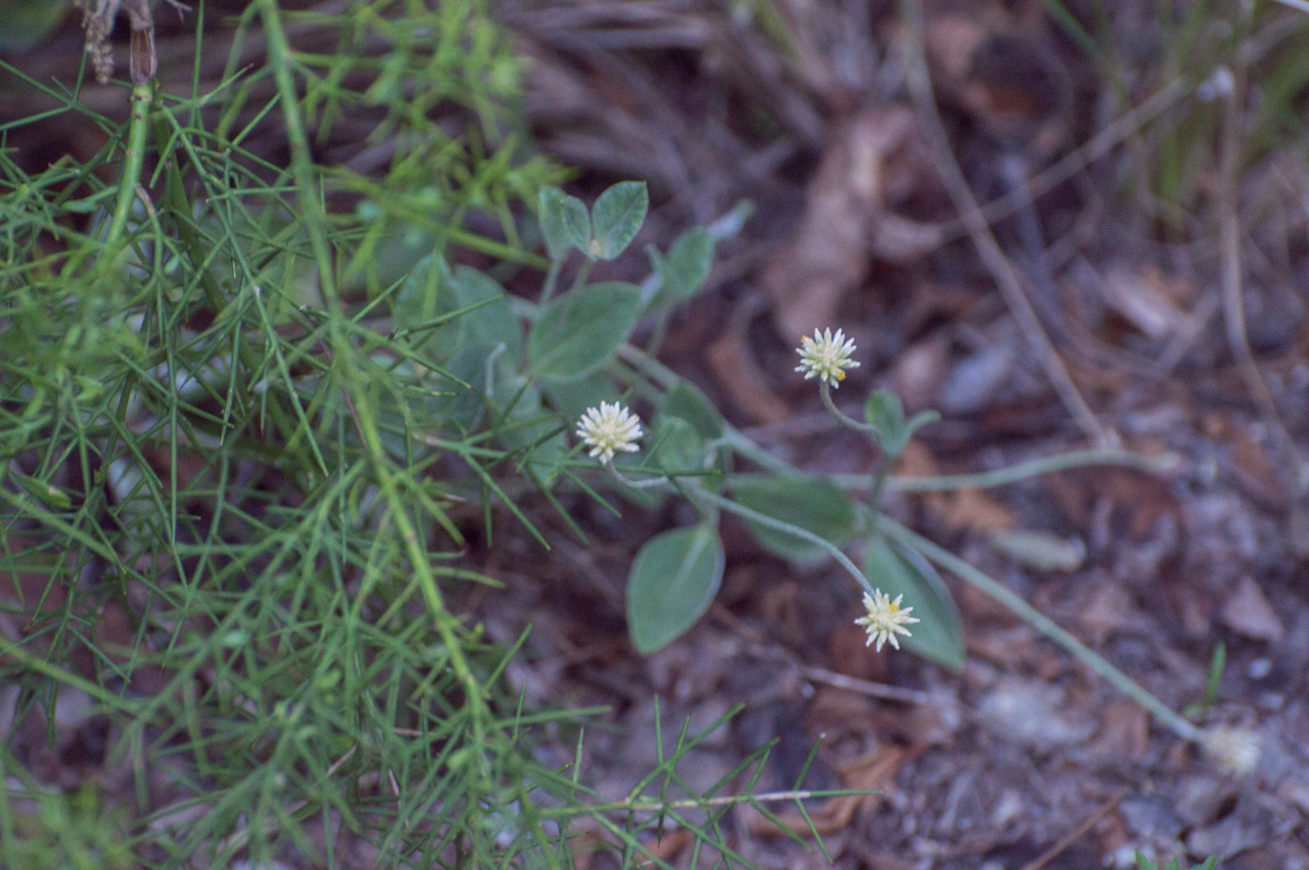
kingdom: Plantae
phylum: Tracheophyta
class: Magnoliopsida
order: Caryophyllales
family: Amaranthaceae
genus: Pfaffia
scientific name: Pfaffia gnaphalioides
